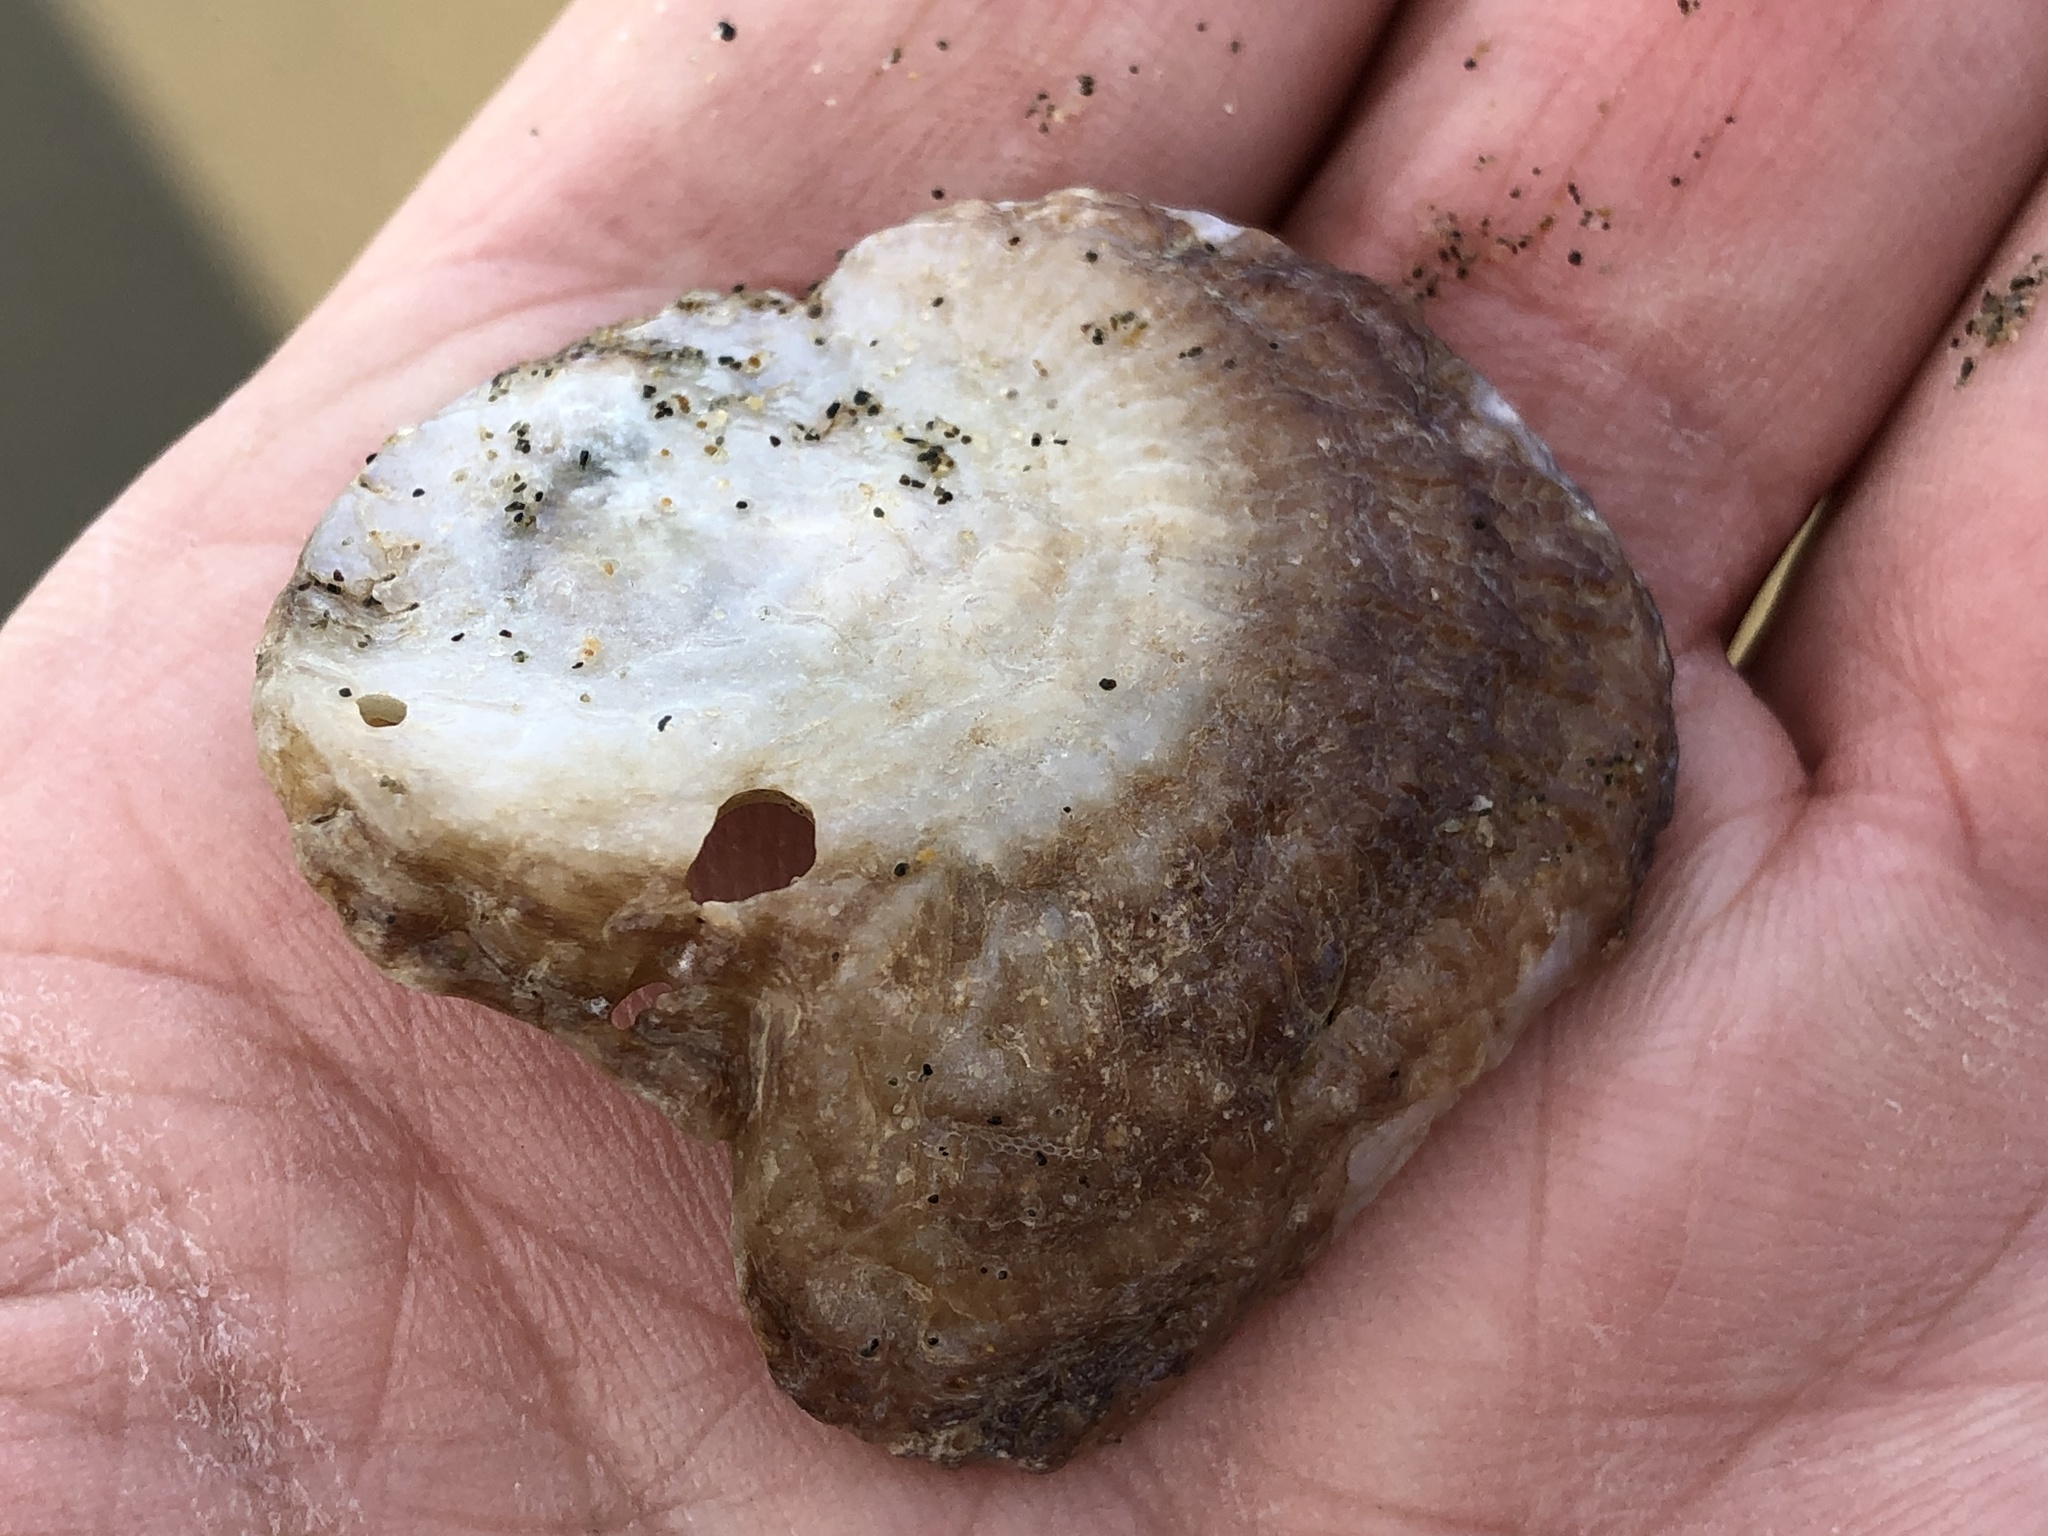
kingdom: Animalia
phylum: Mollusca
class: Bivalvia
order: Pectinida
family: Anomiidae
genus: Pododesmus
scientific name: Pododesmus macrochisma
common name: Alaska jingle
